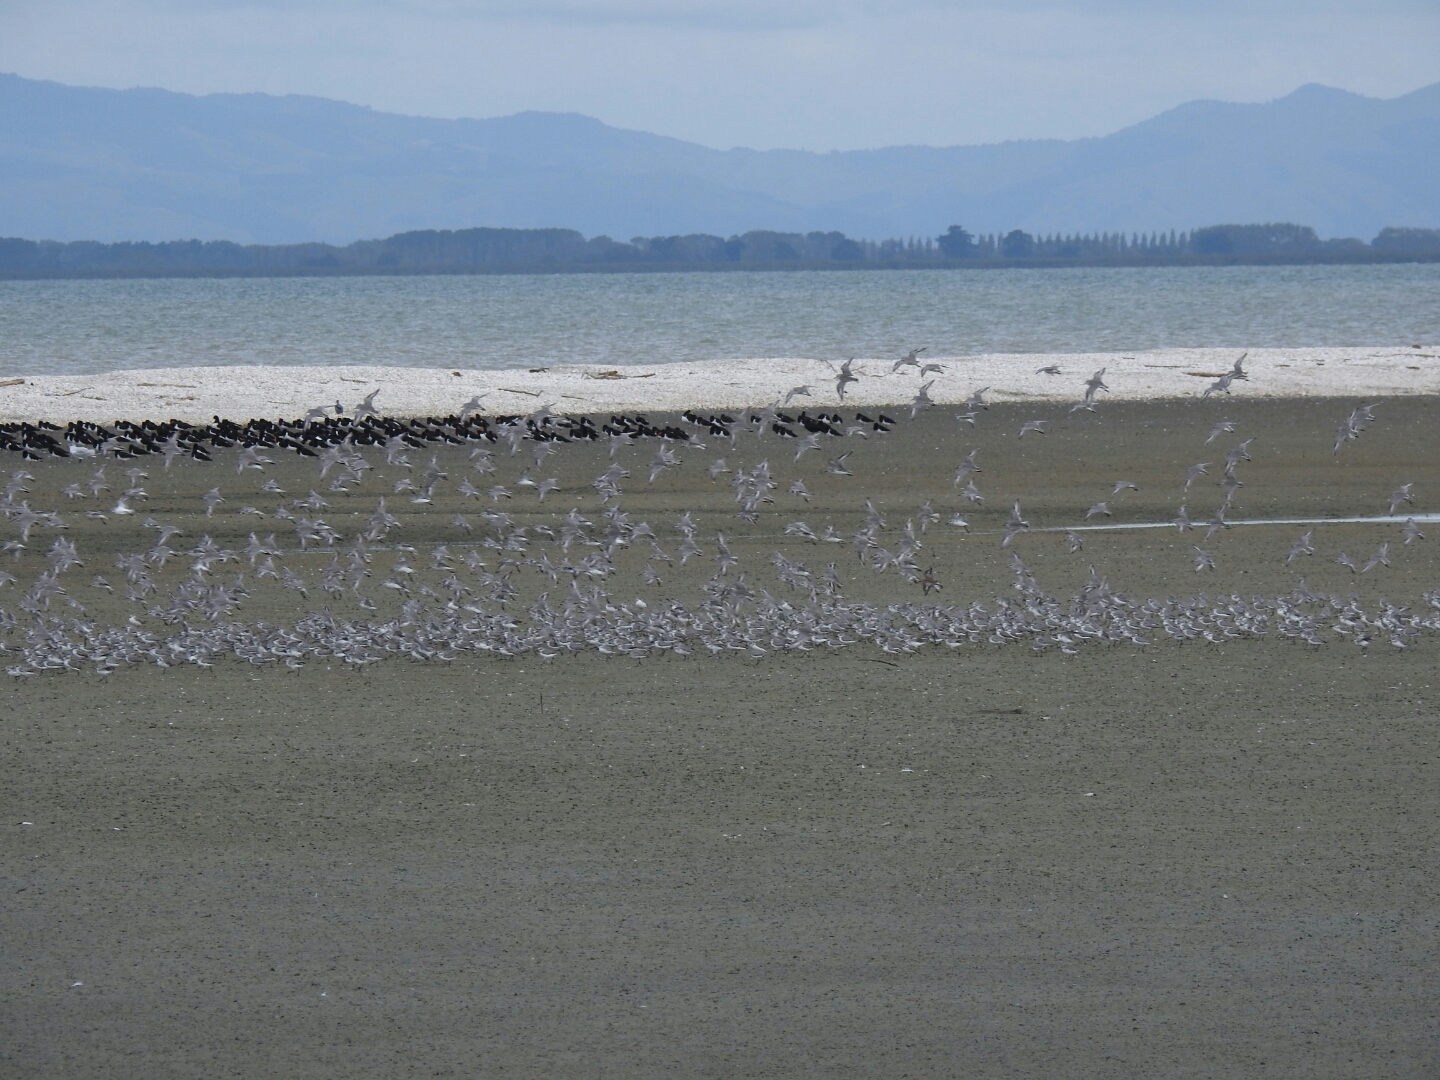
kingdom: Animalia
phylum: Chordata
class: Aves
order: Charadriiformes
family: Charadriidae
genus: Anarhynchus
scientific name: Anarhynchus frontalis
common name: Wrybill
